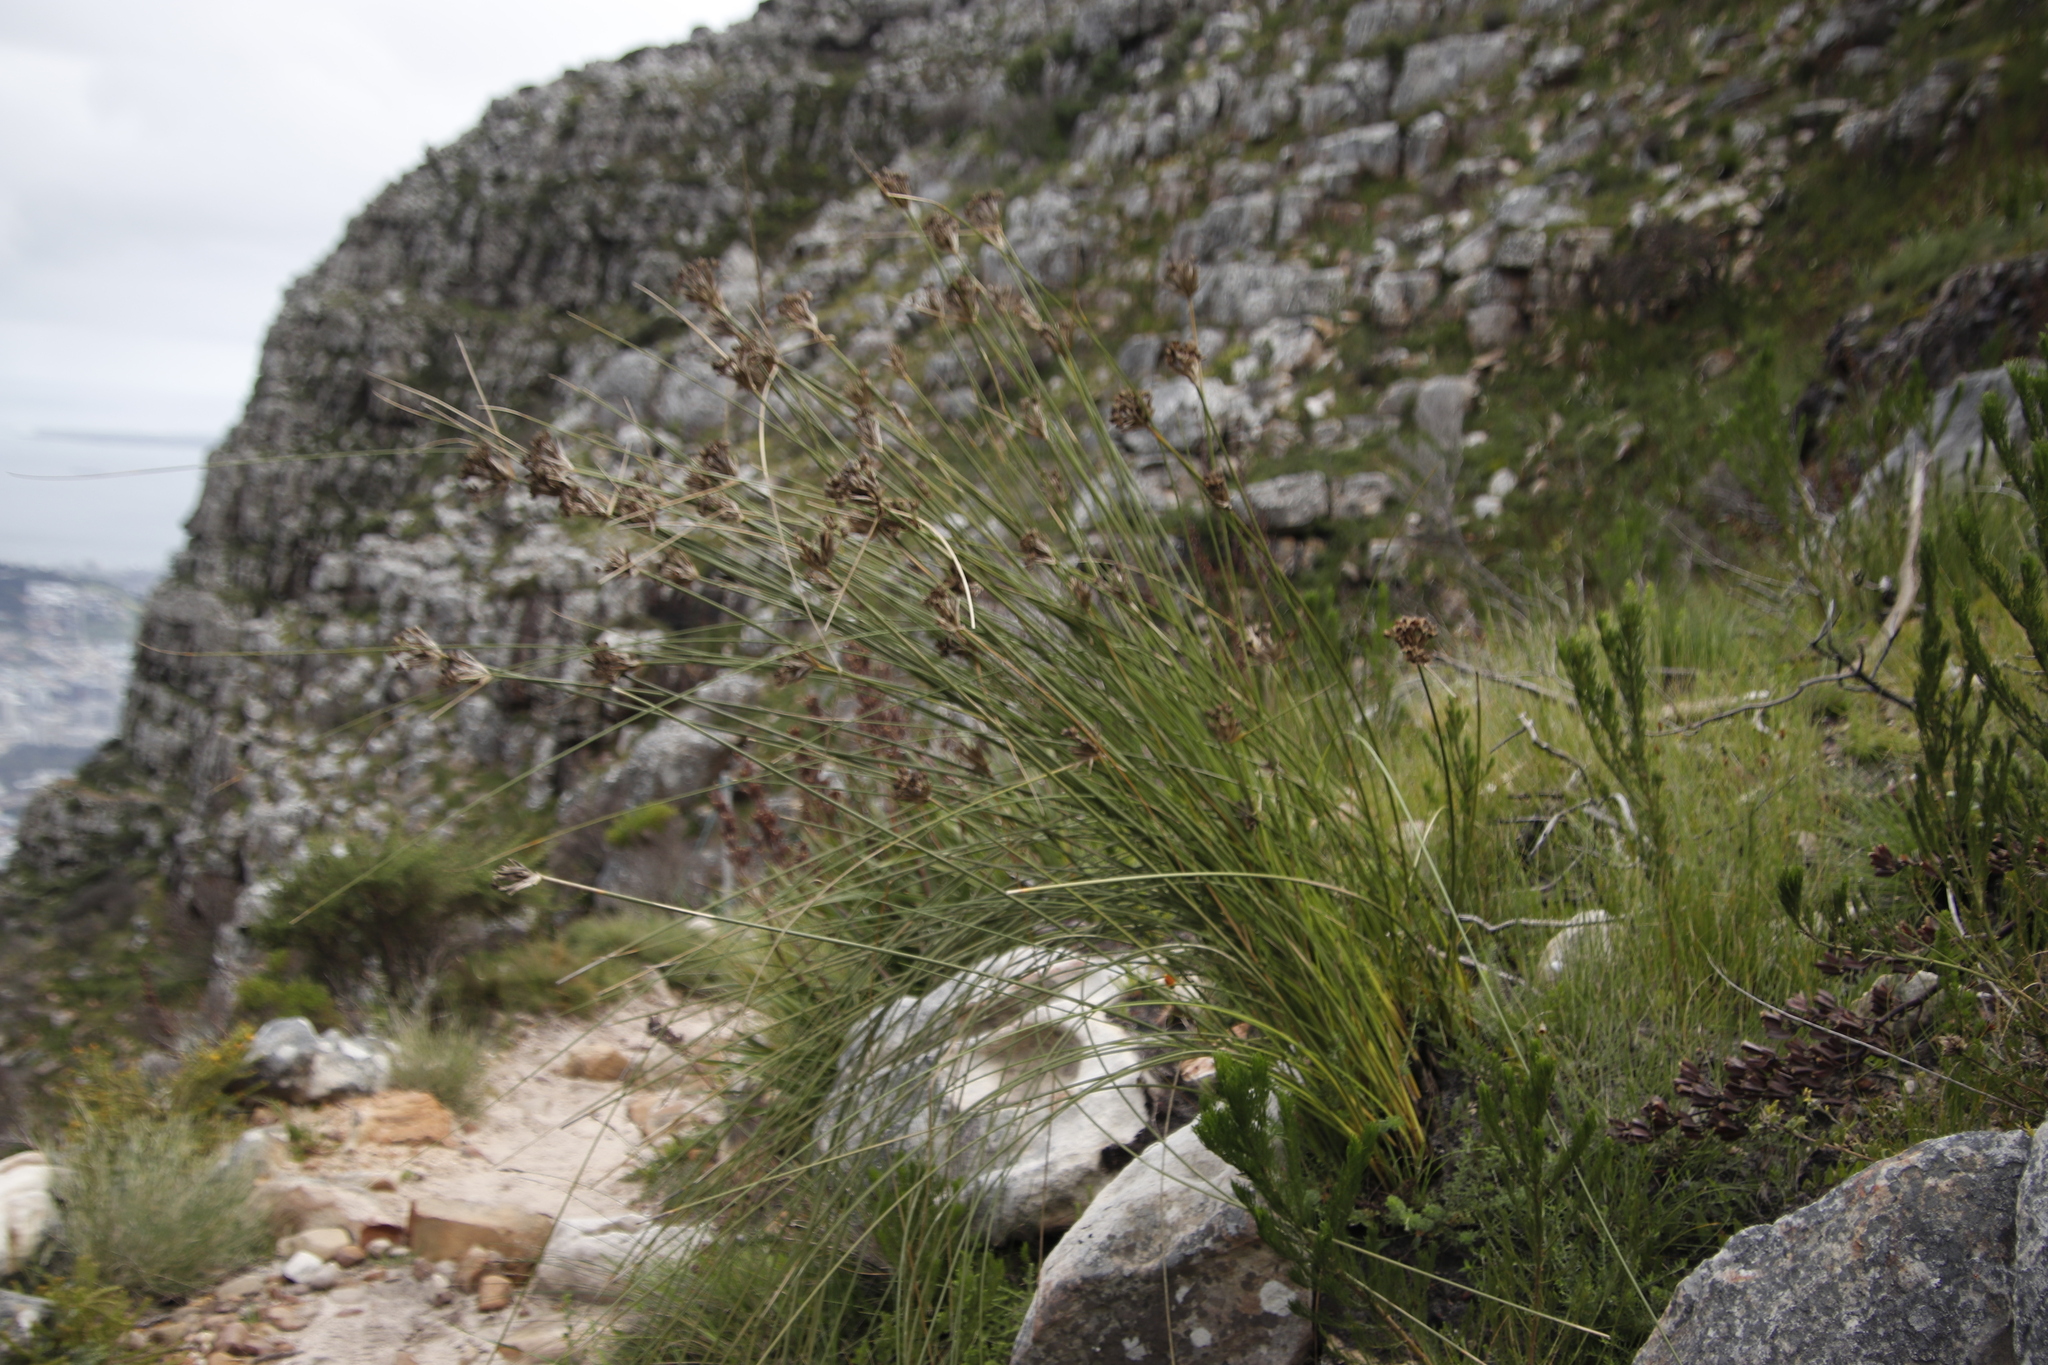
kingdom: Plantae
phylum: Tracheophyta
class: Liliopsida
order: Asparagales
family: Iridaceae
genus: Bobartia
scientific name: Bobartia indica
